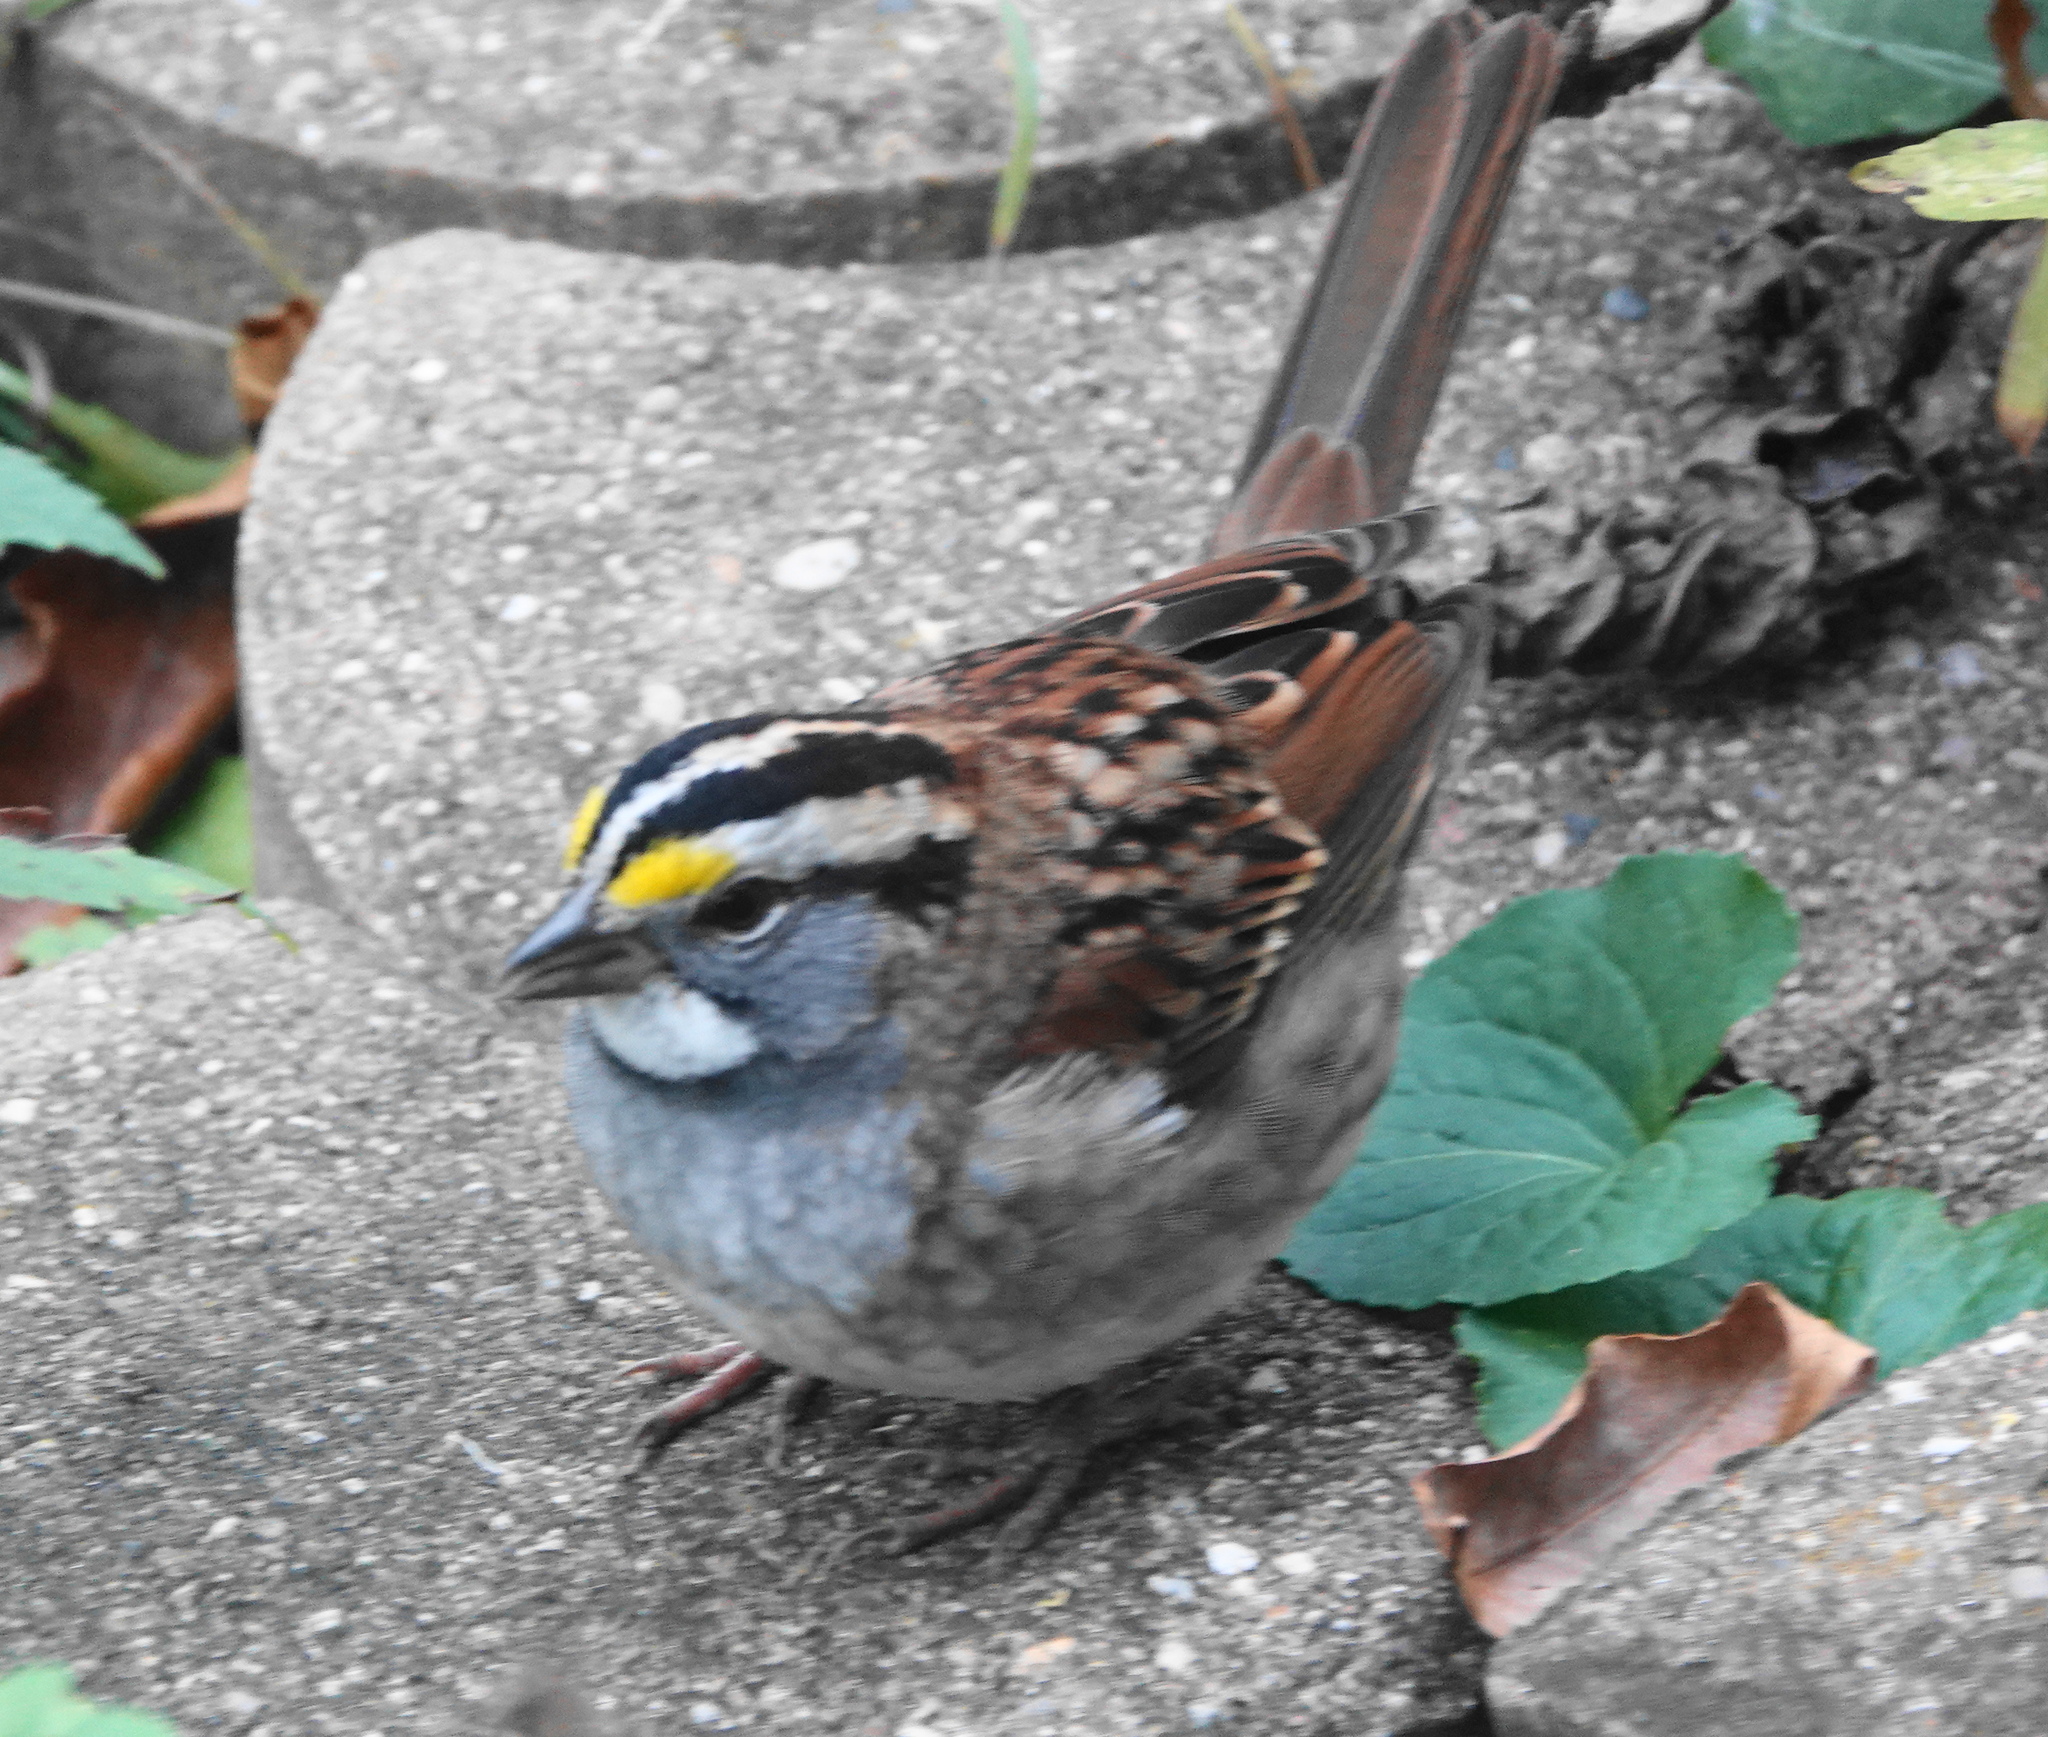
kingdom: Animalia
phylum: Chordata
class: Aves
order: Passeriformes
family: Passerellidae
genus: Zonotrichia
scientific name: Zonotrichia albicollis
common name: White-throated sparrow
